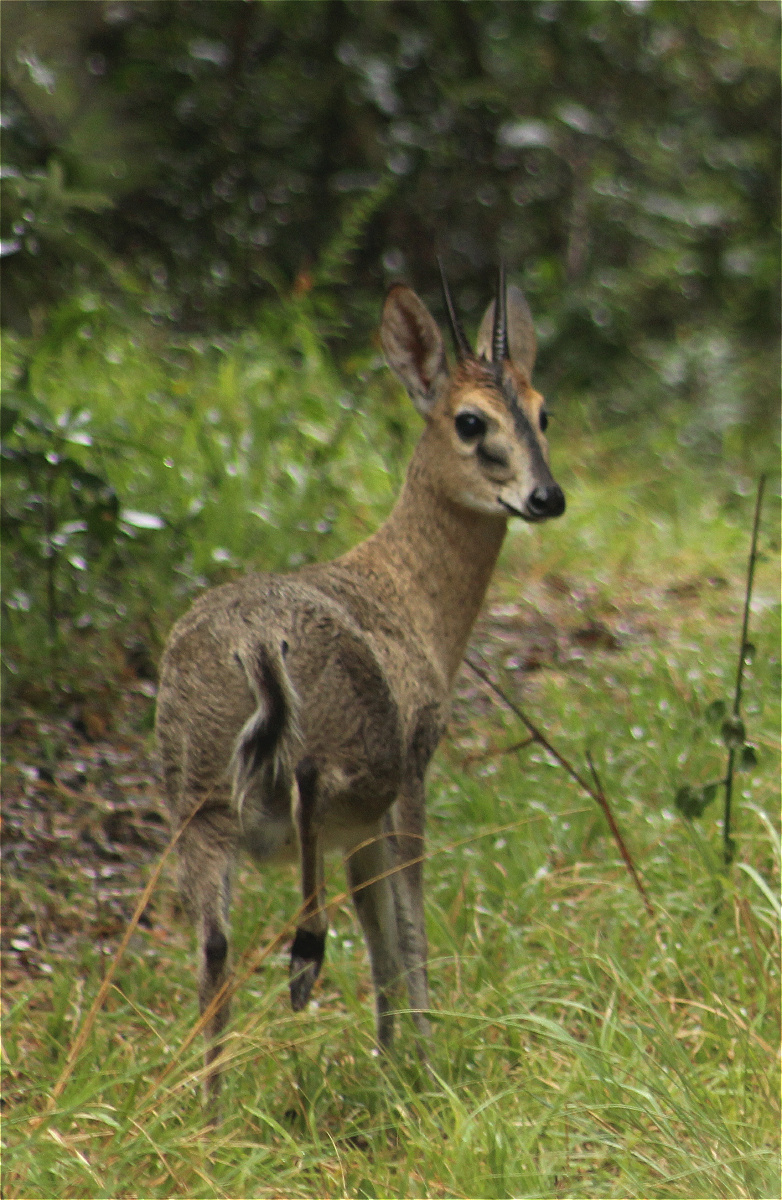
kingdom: Animalia
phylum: Chordata
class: Mammalia
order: Artiodactyla
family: Bovidae
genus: Sylvicapra
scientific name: Sylvicapra grimmia
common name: Bush duiker
